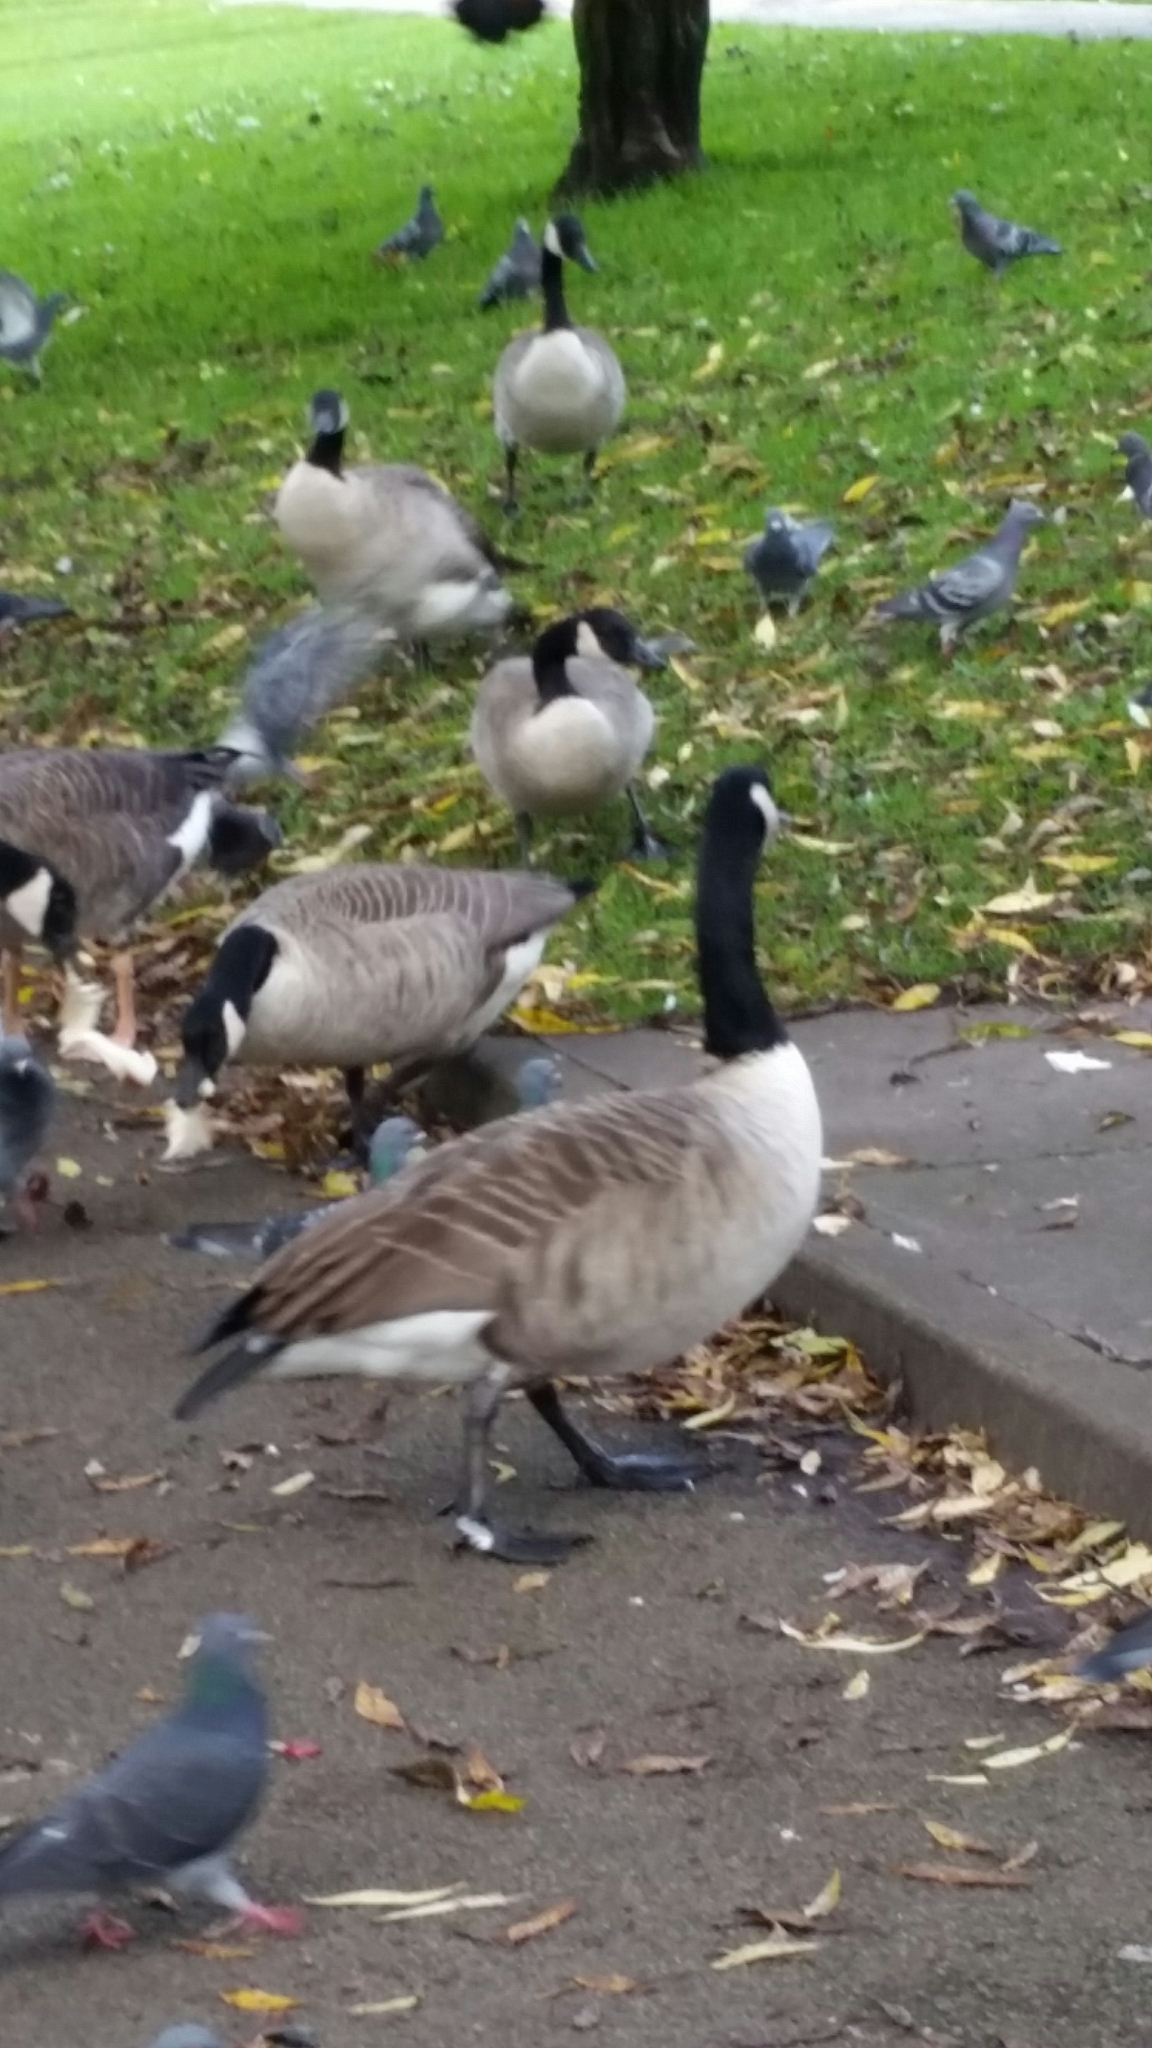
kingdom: Animalia
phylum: Chordata
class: Aves
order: Anseriformes
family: Anatidae
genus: Branta
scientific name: Branta canadensis
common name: Canada goose
